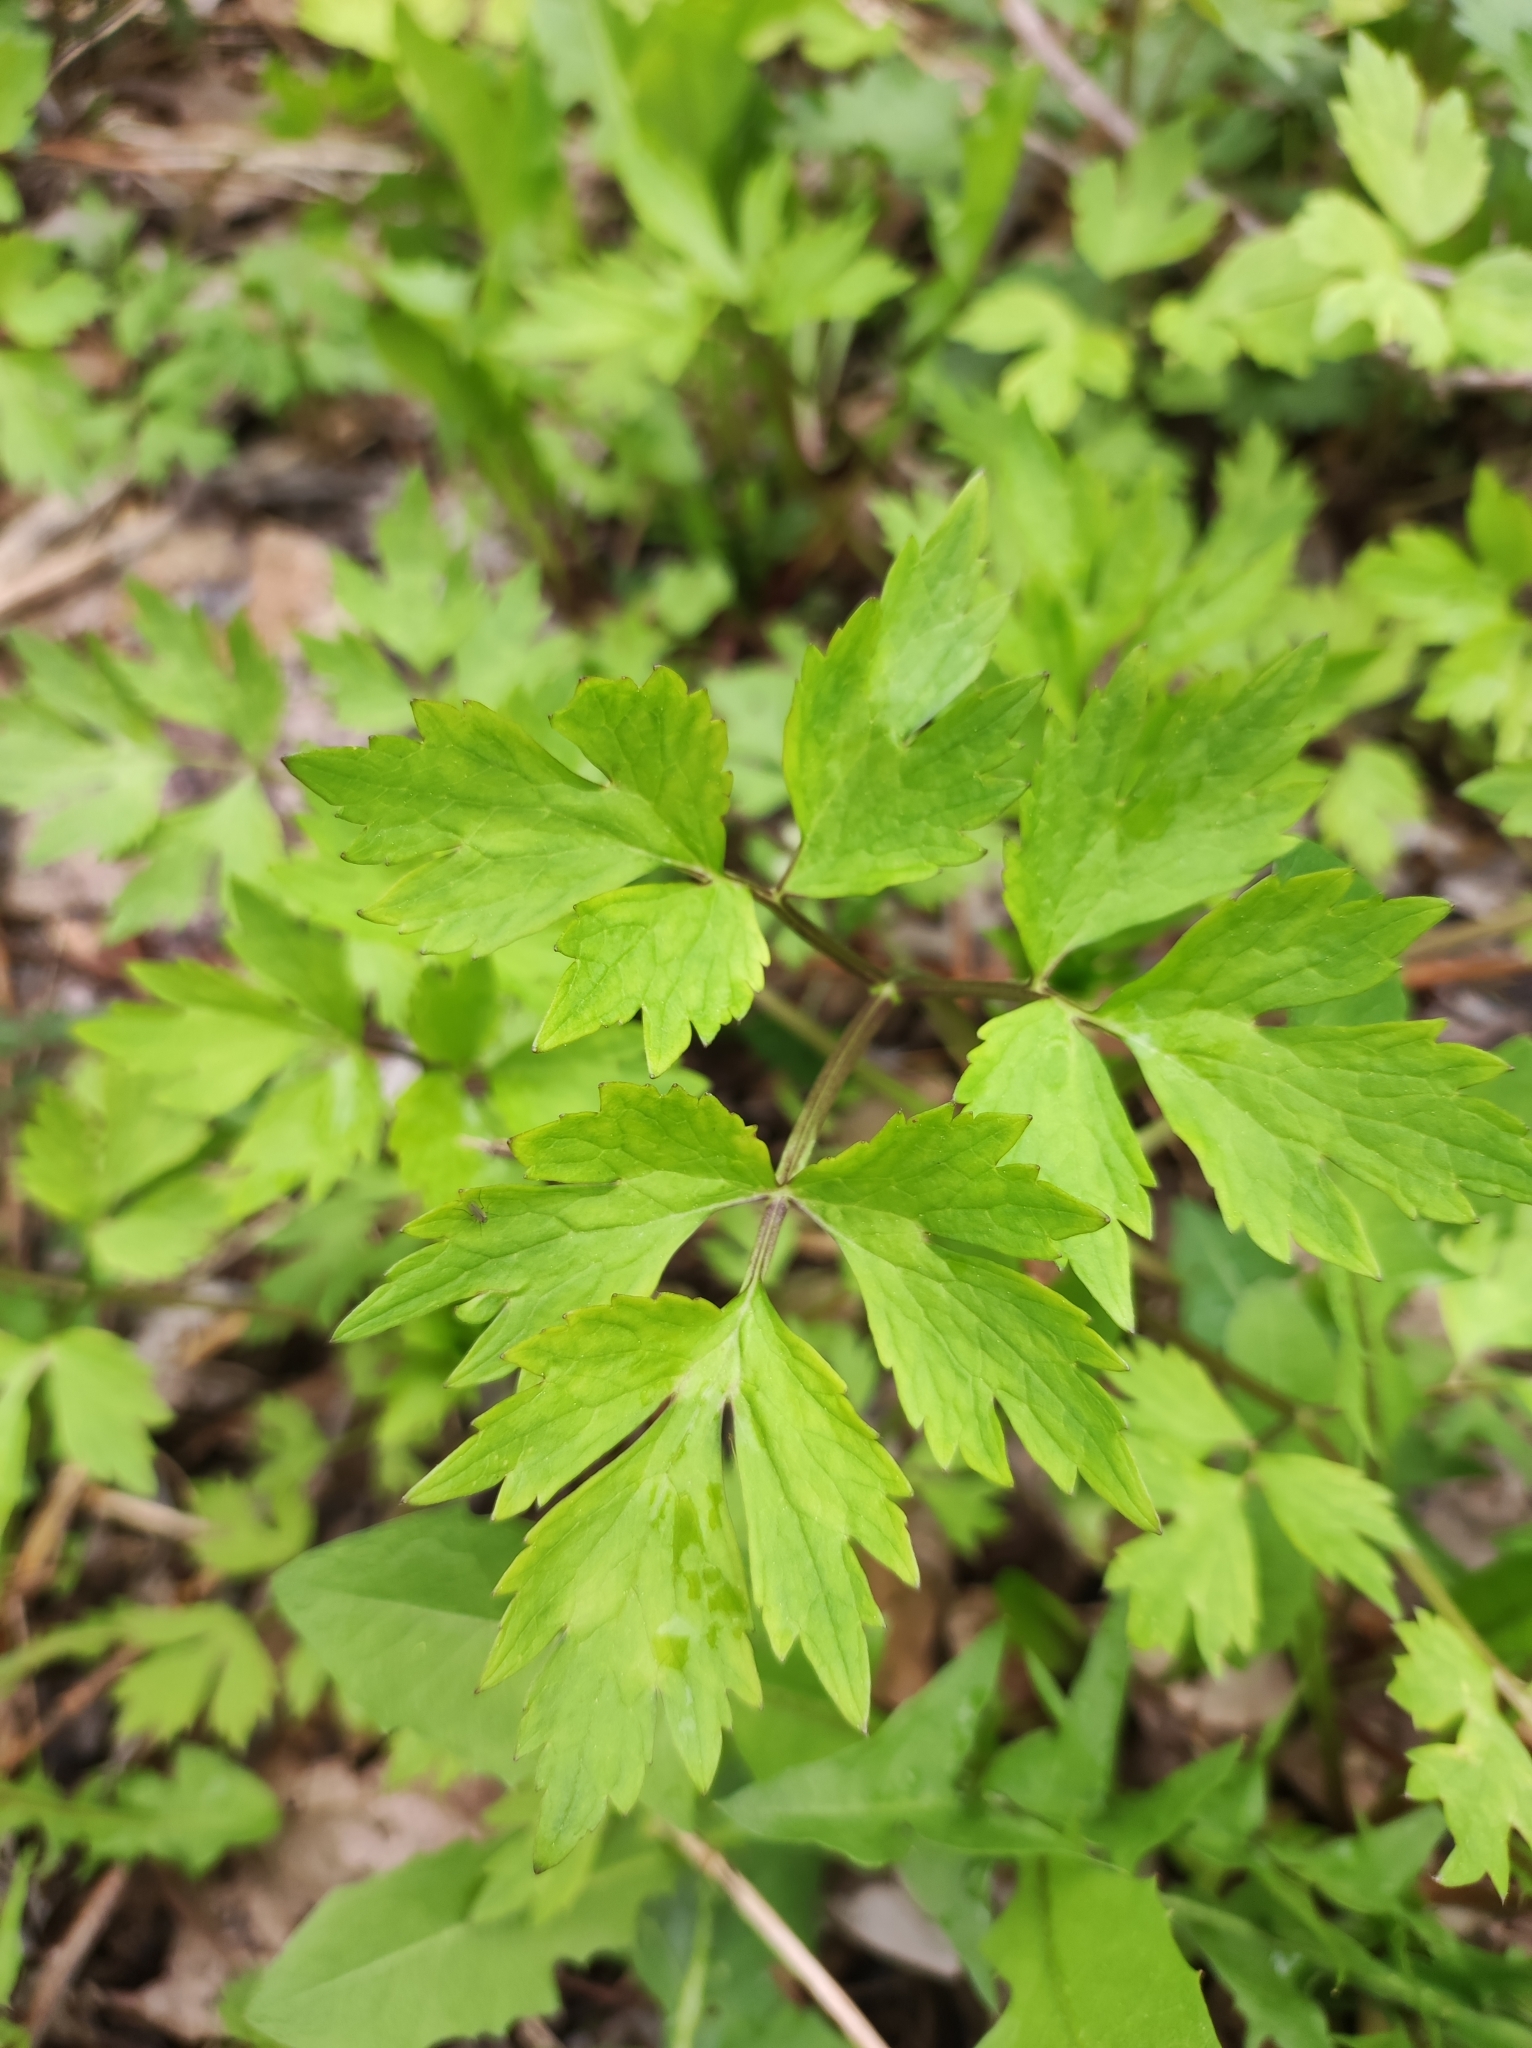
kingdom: Plantae
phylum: Tracheophyta
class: Magnoliopsida
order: Ranunculales
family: Ranunculaceae
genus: Ranunculus
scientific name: Ranunculus repens
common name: Creeping buttercup
